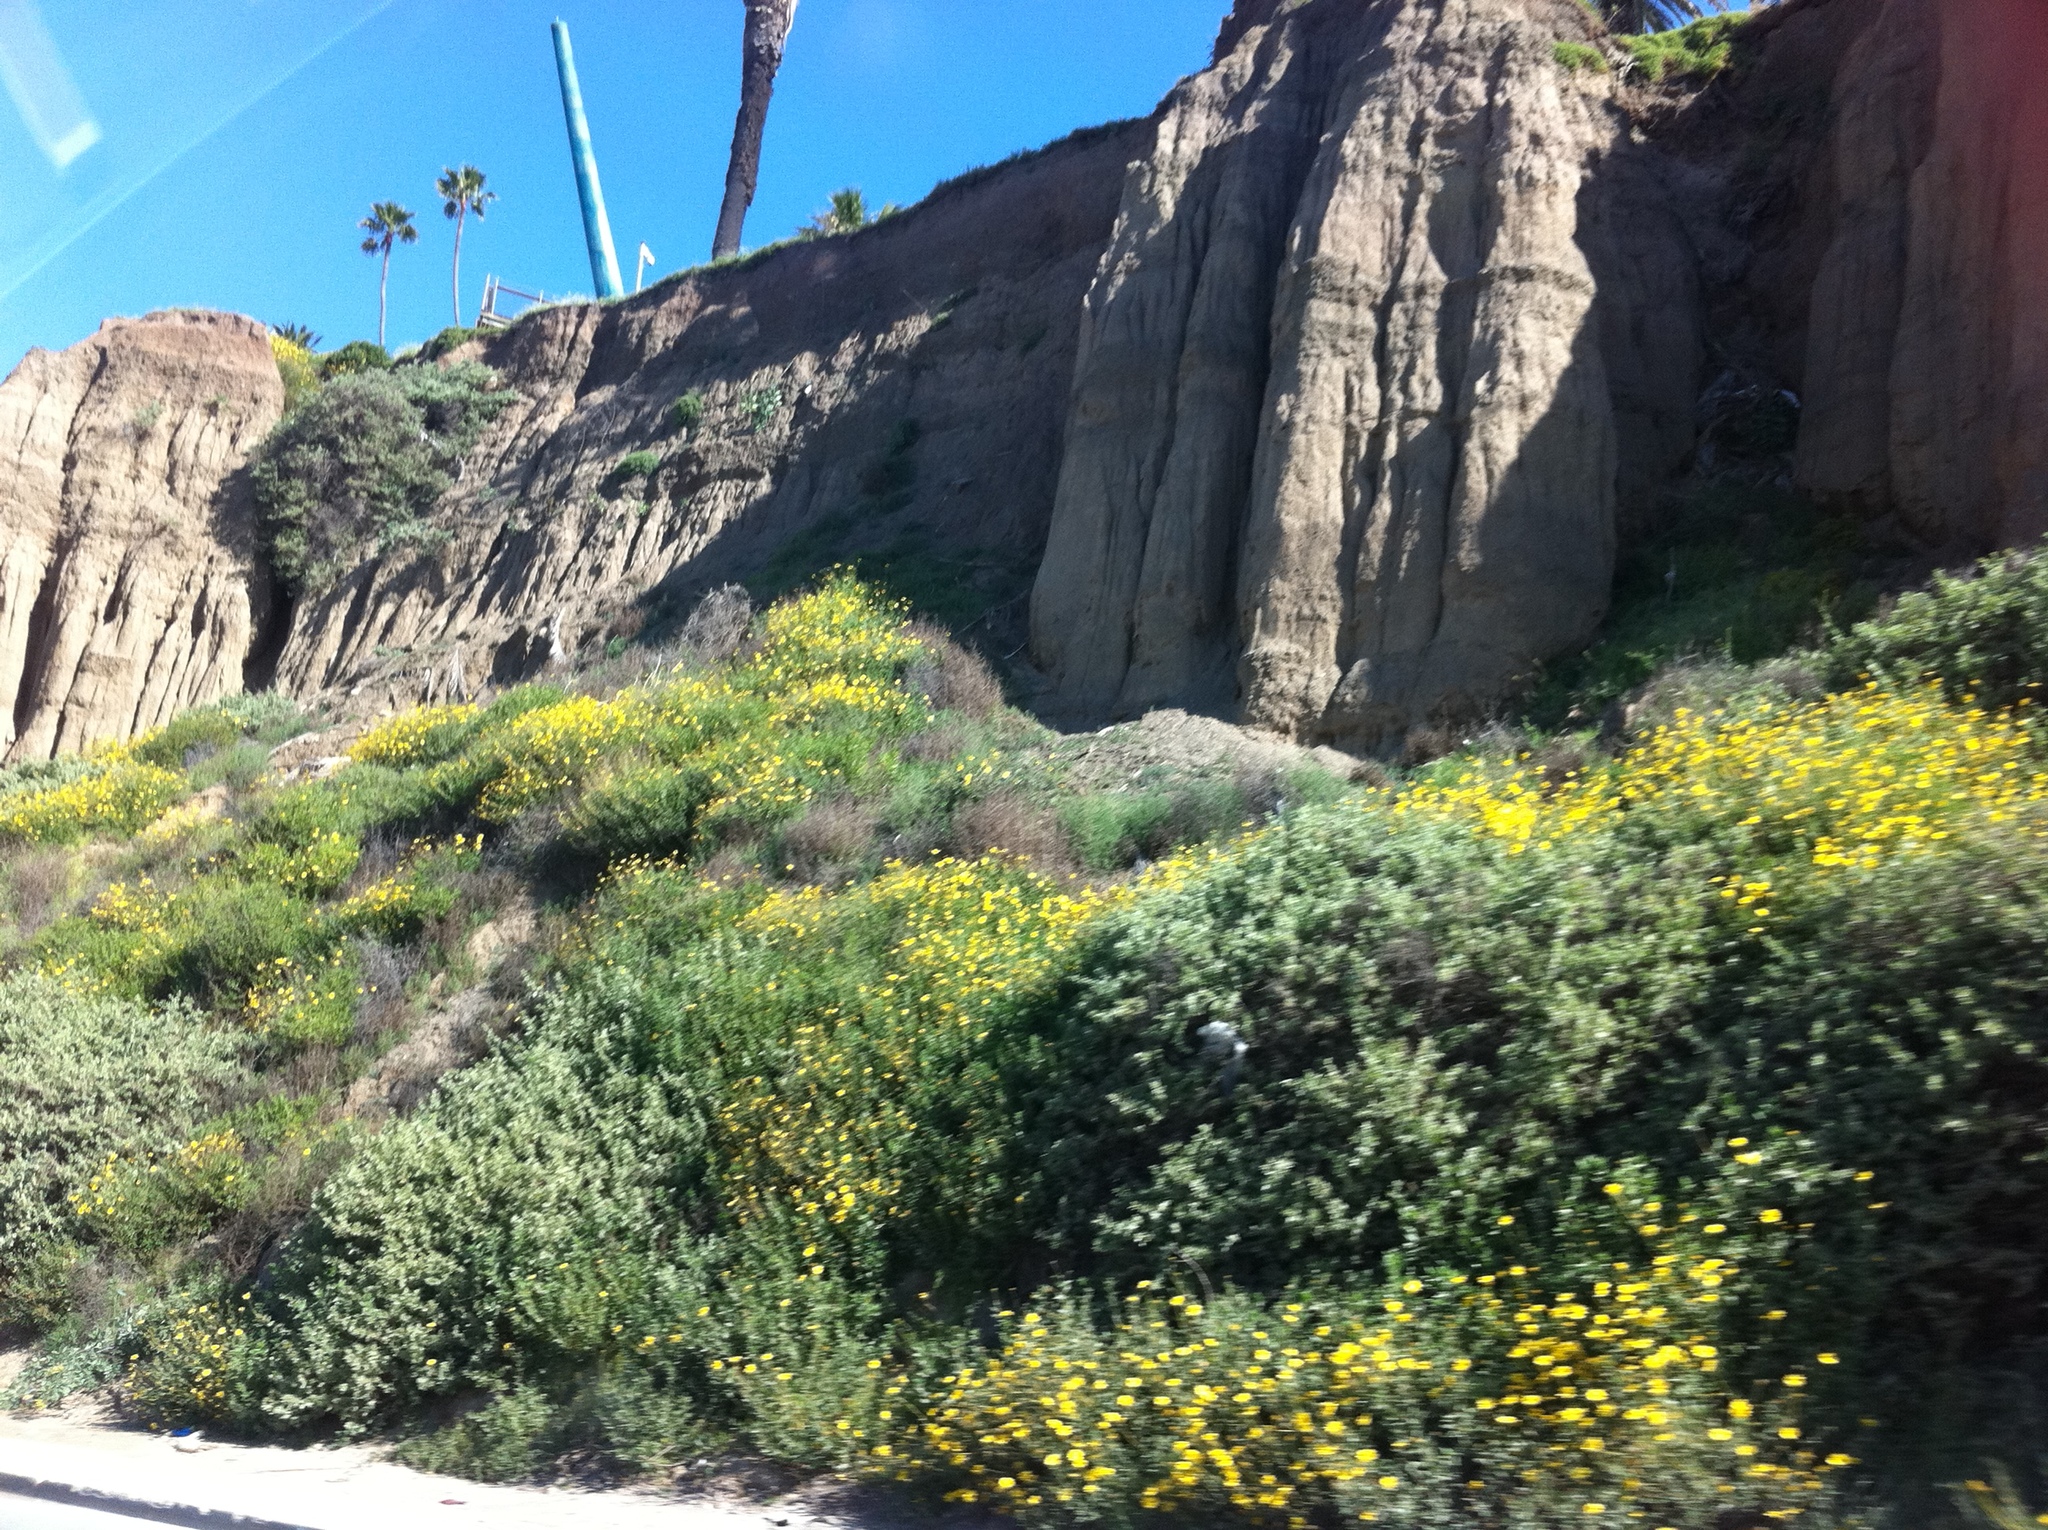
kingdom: Plantae
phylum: Tracheophyta
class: Magnoliopsida
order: Asterales
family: Asteraceae
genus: Encelia
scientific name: Encelia californica
